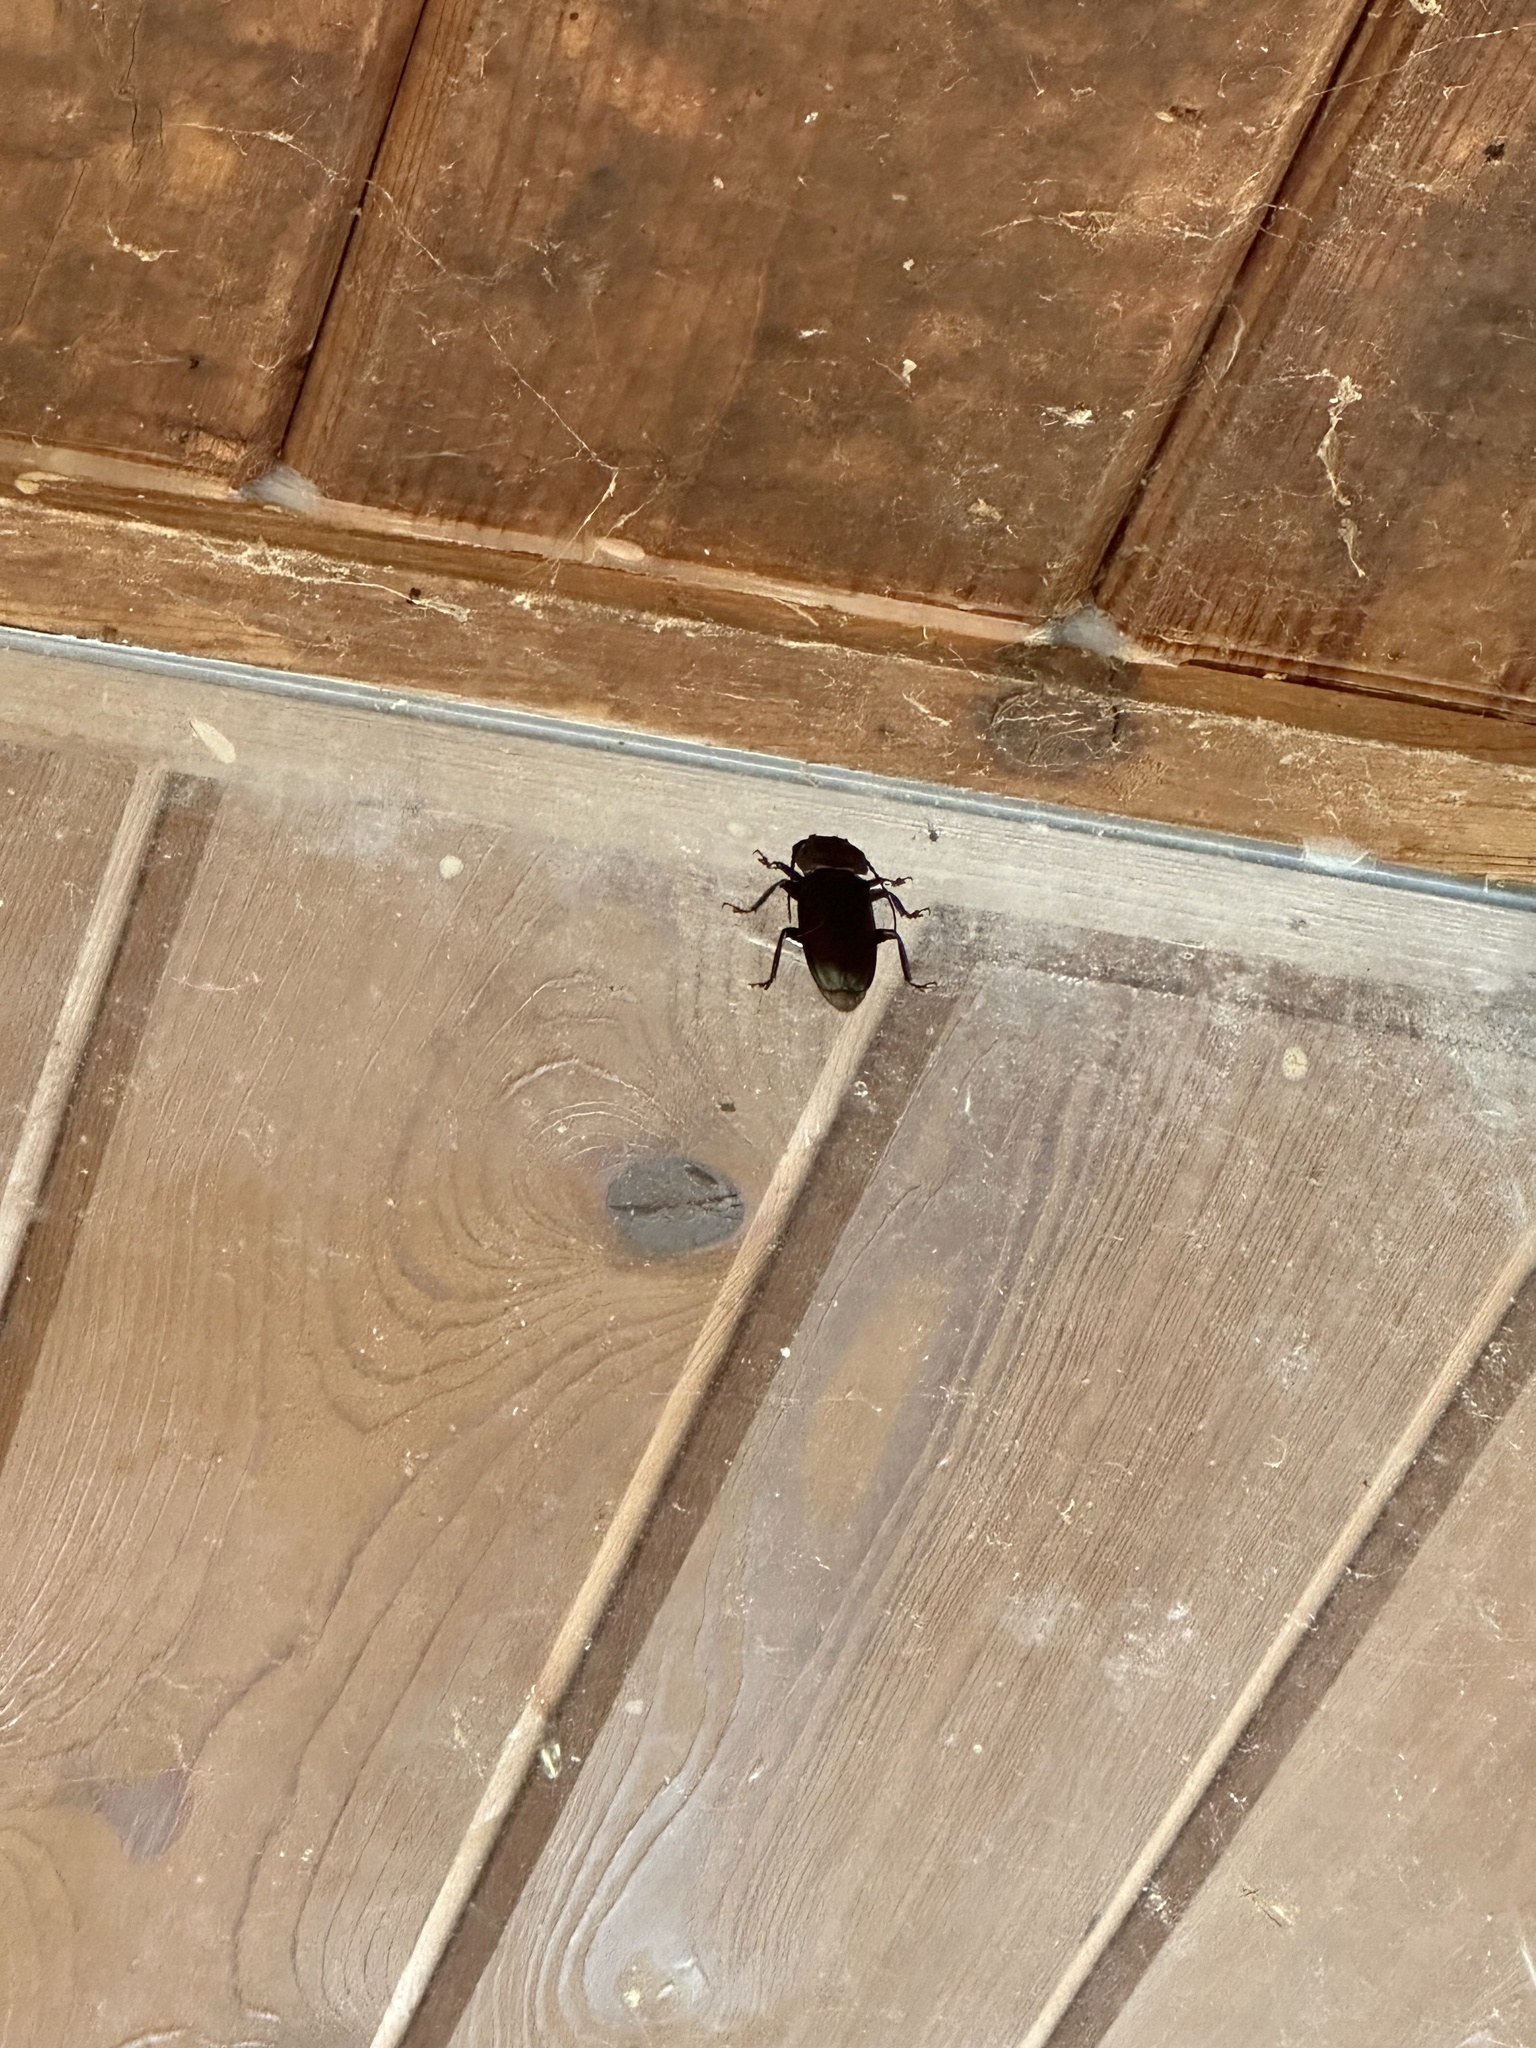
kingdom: Animalia
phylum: Arthropoda
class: Insecta
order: Coleoptera
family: Cerambycidae
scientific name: Cerambycidae
